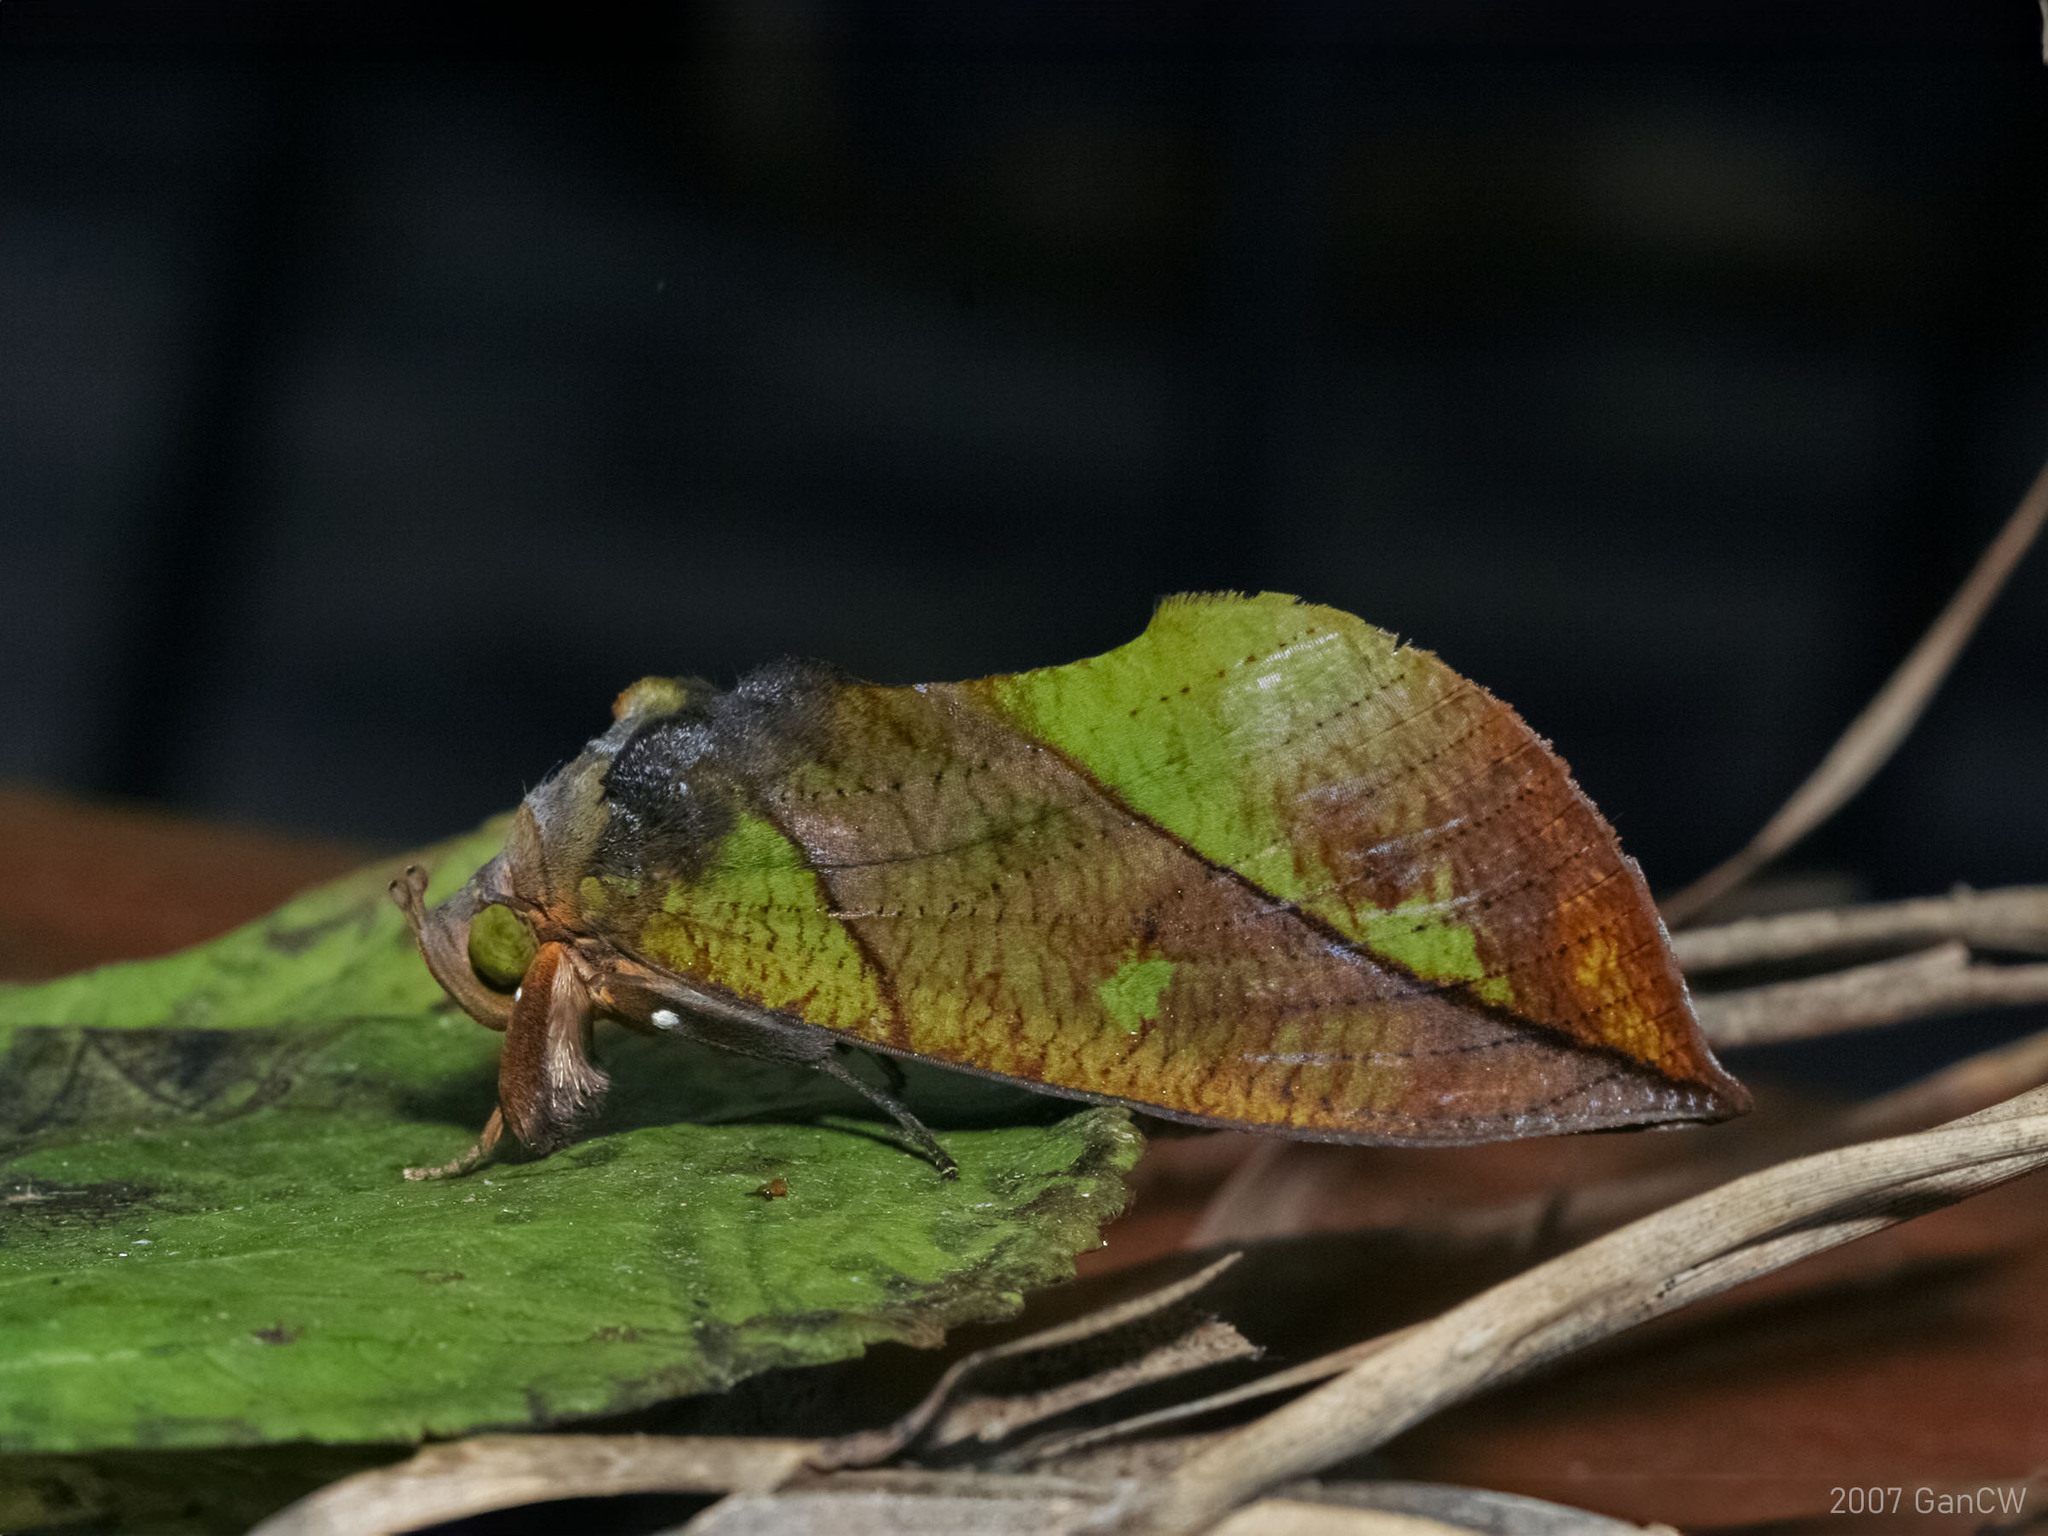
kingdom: Animalia
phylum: Arthropoda
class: Insecta
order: Lepidoptera
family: Erebidae
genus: Eudocima
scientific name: Eudocima sikhimensis
